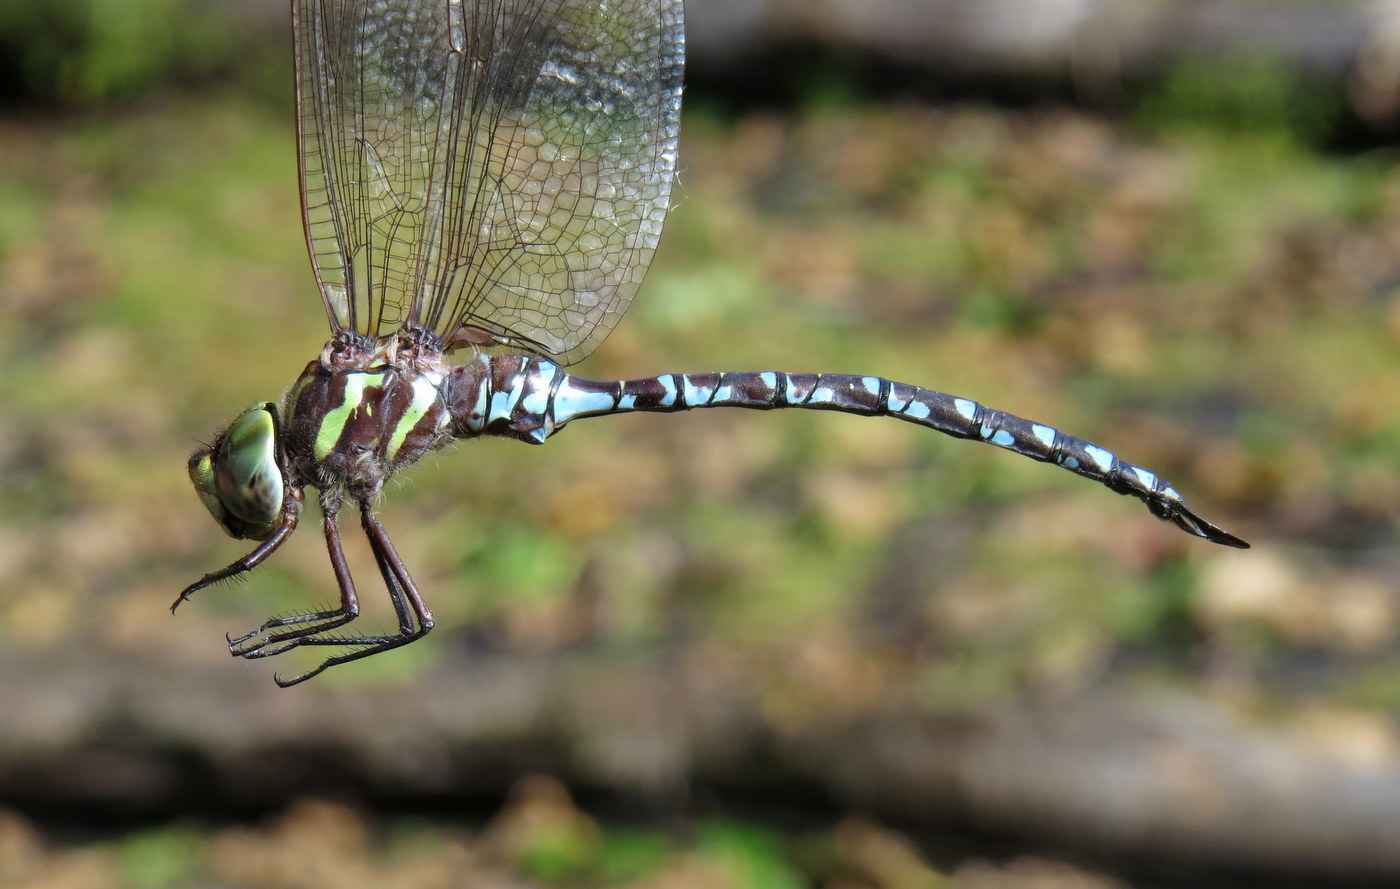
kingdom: Animalia
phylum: Arthropoda
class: Insecta
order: Odonata
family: Aeshnidae
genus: Aeshna
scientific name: Aeshna verticalis
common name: Green-striped darner
